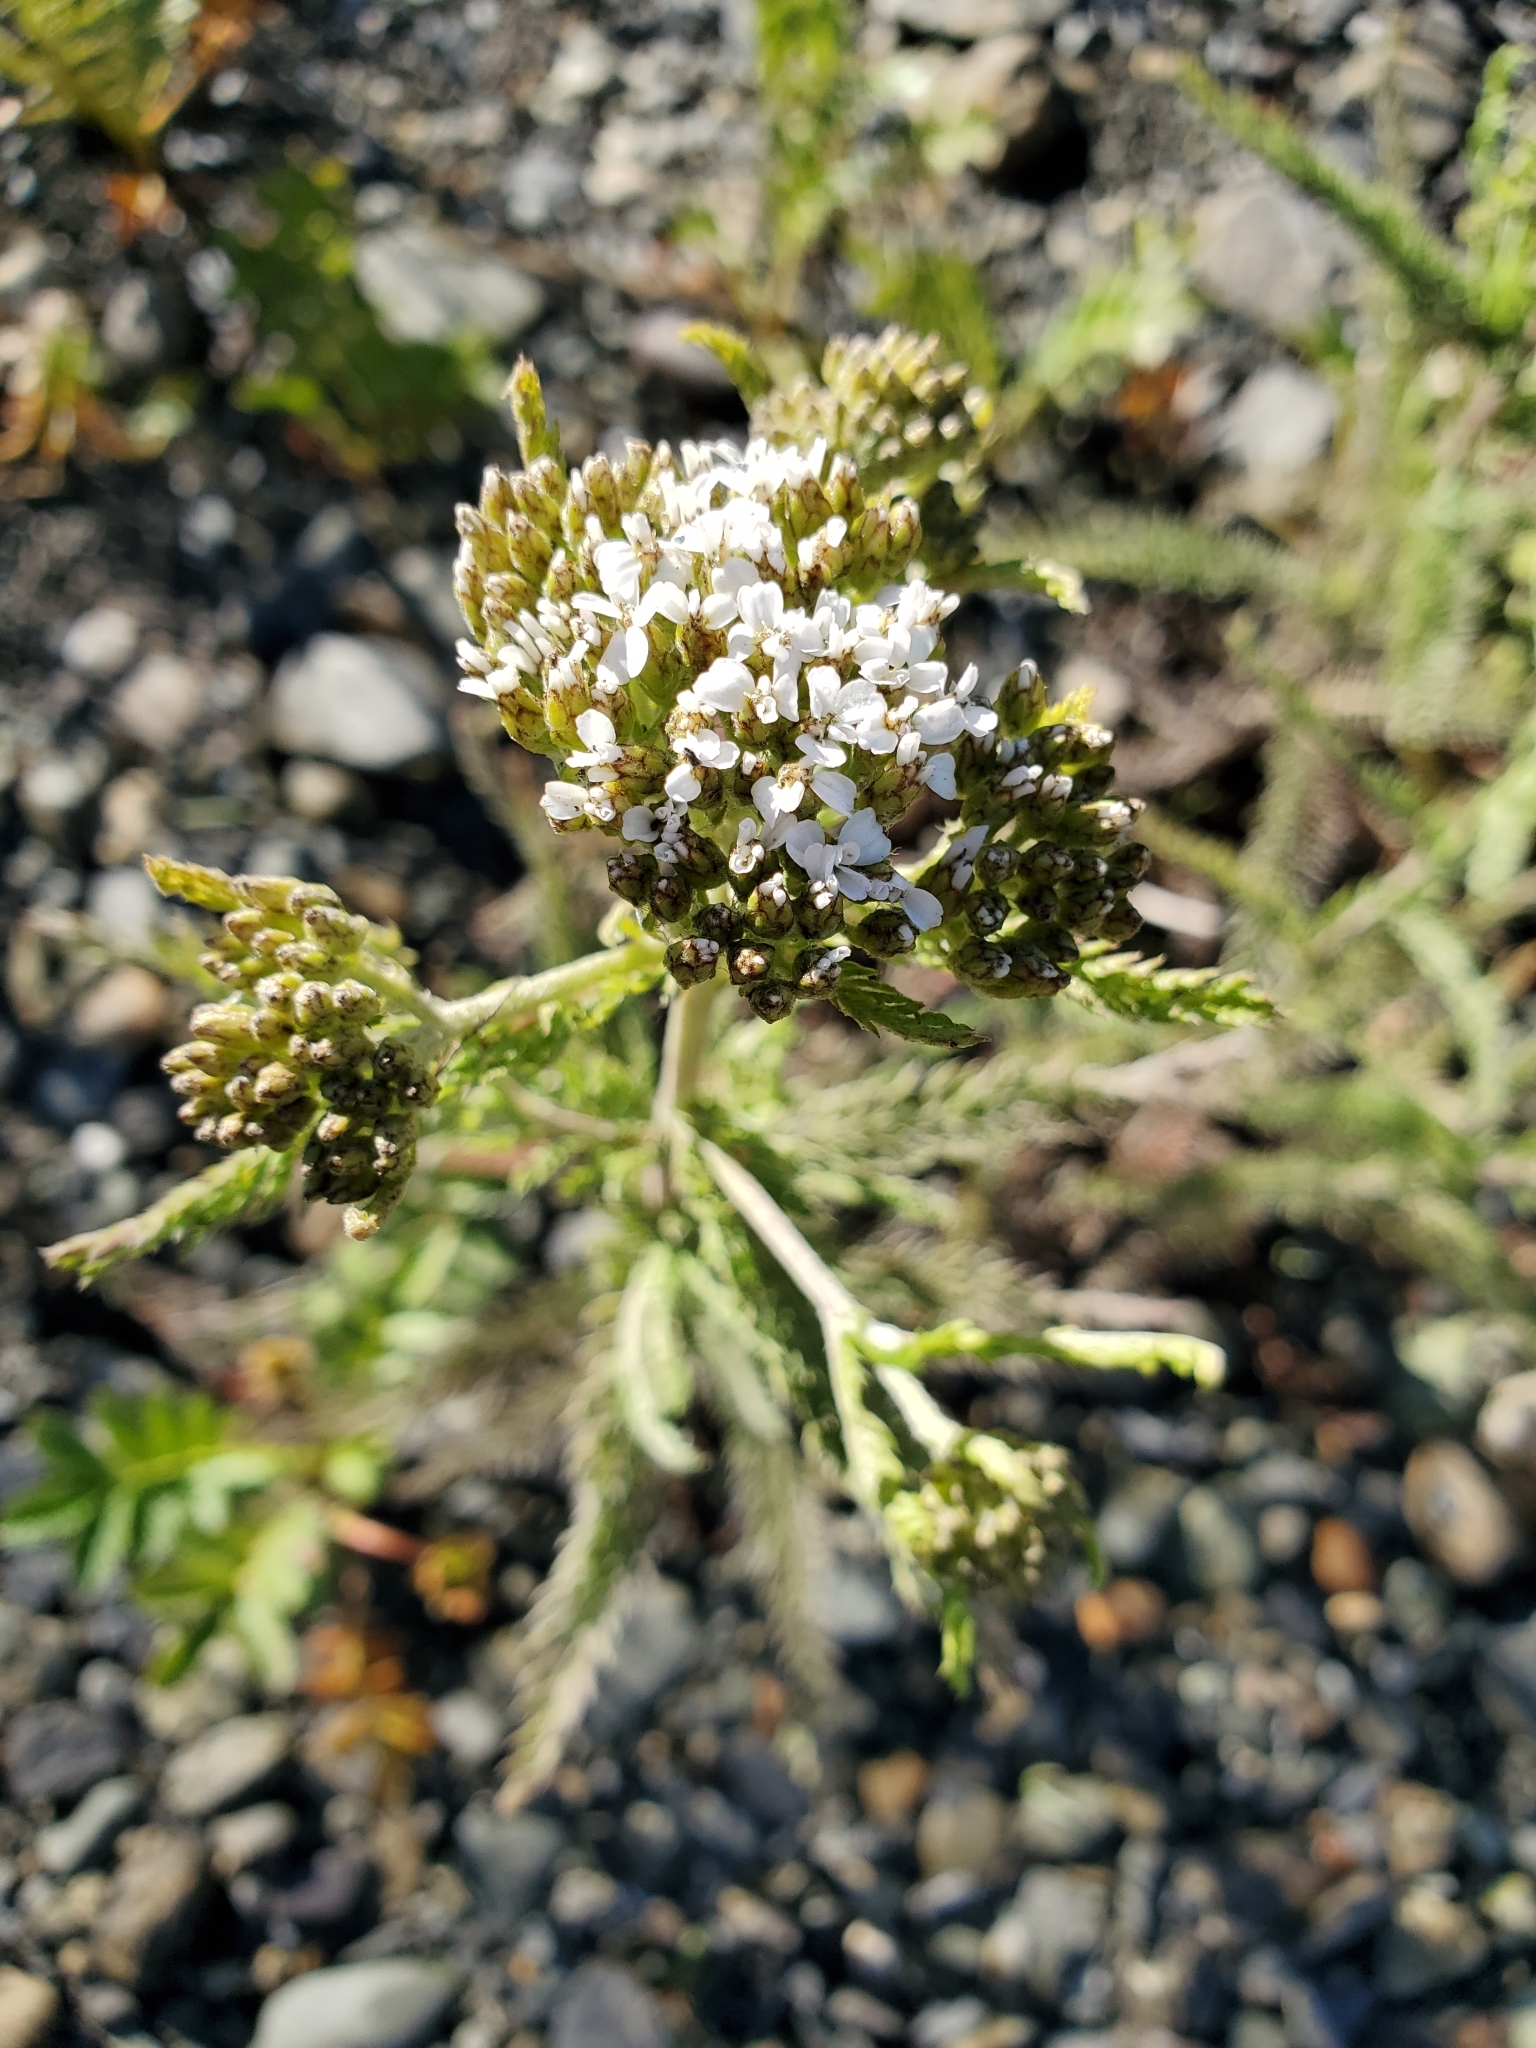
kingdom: Plantae
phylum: Tracheophyta
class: Magnoliopsida
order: Asterales
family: Asteraceae
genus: Achillea
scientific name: Achillea millefolium
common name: Yarrow
